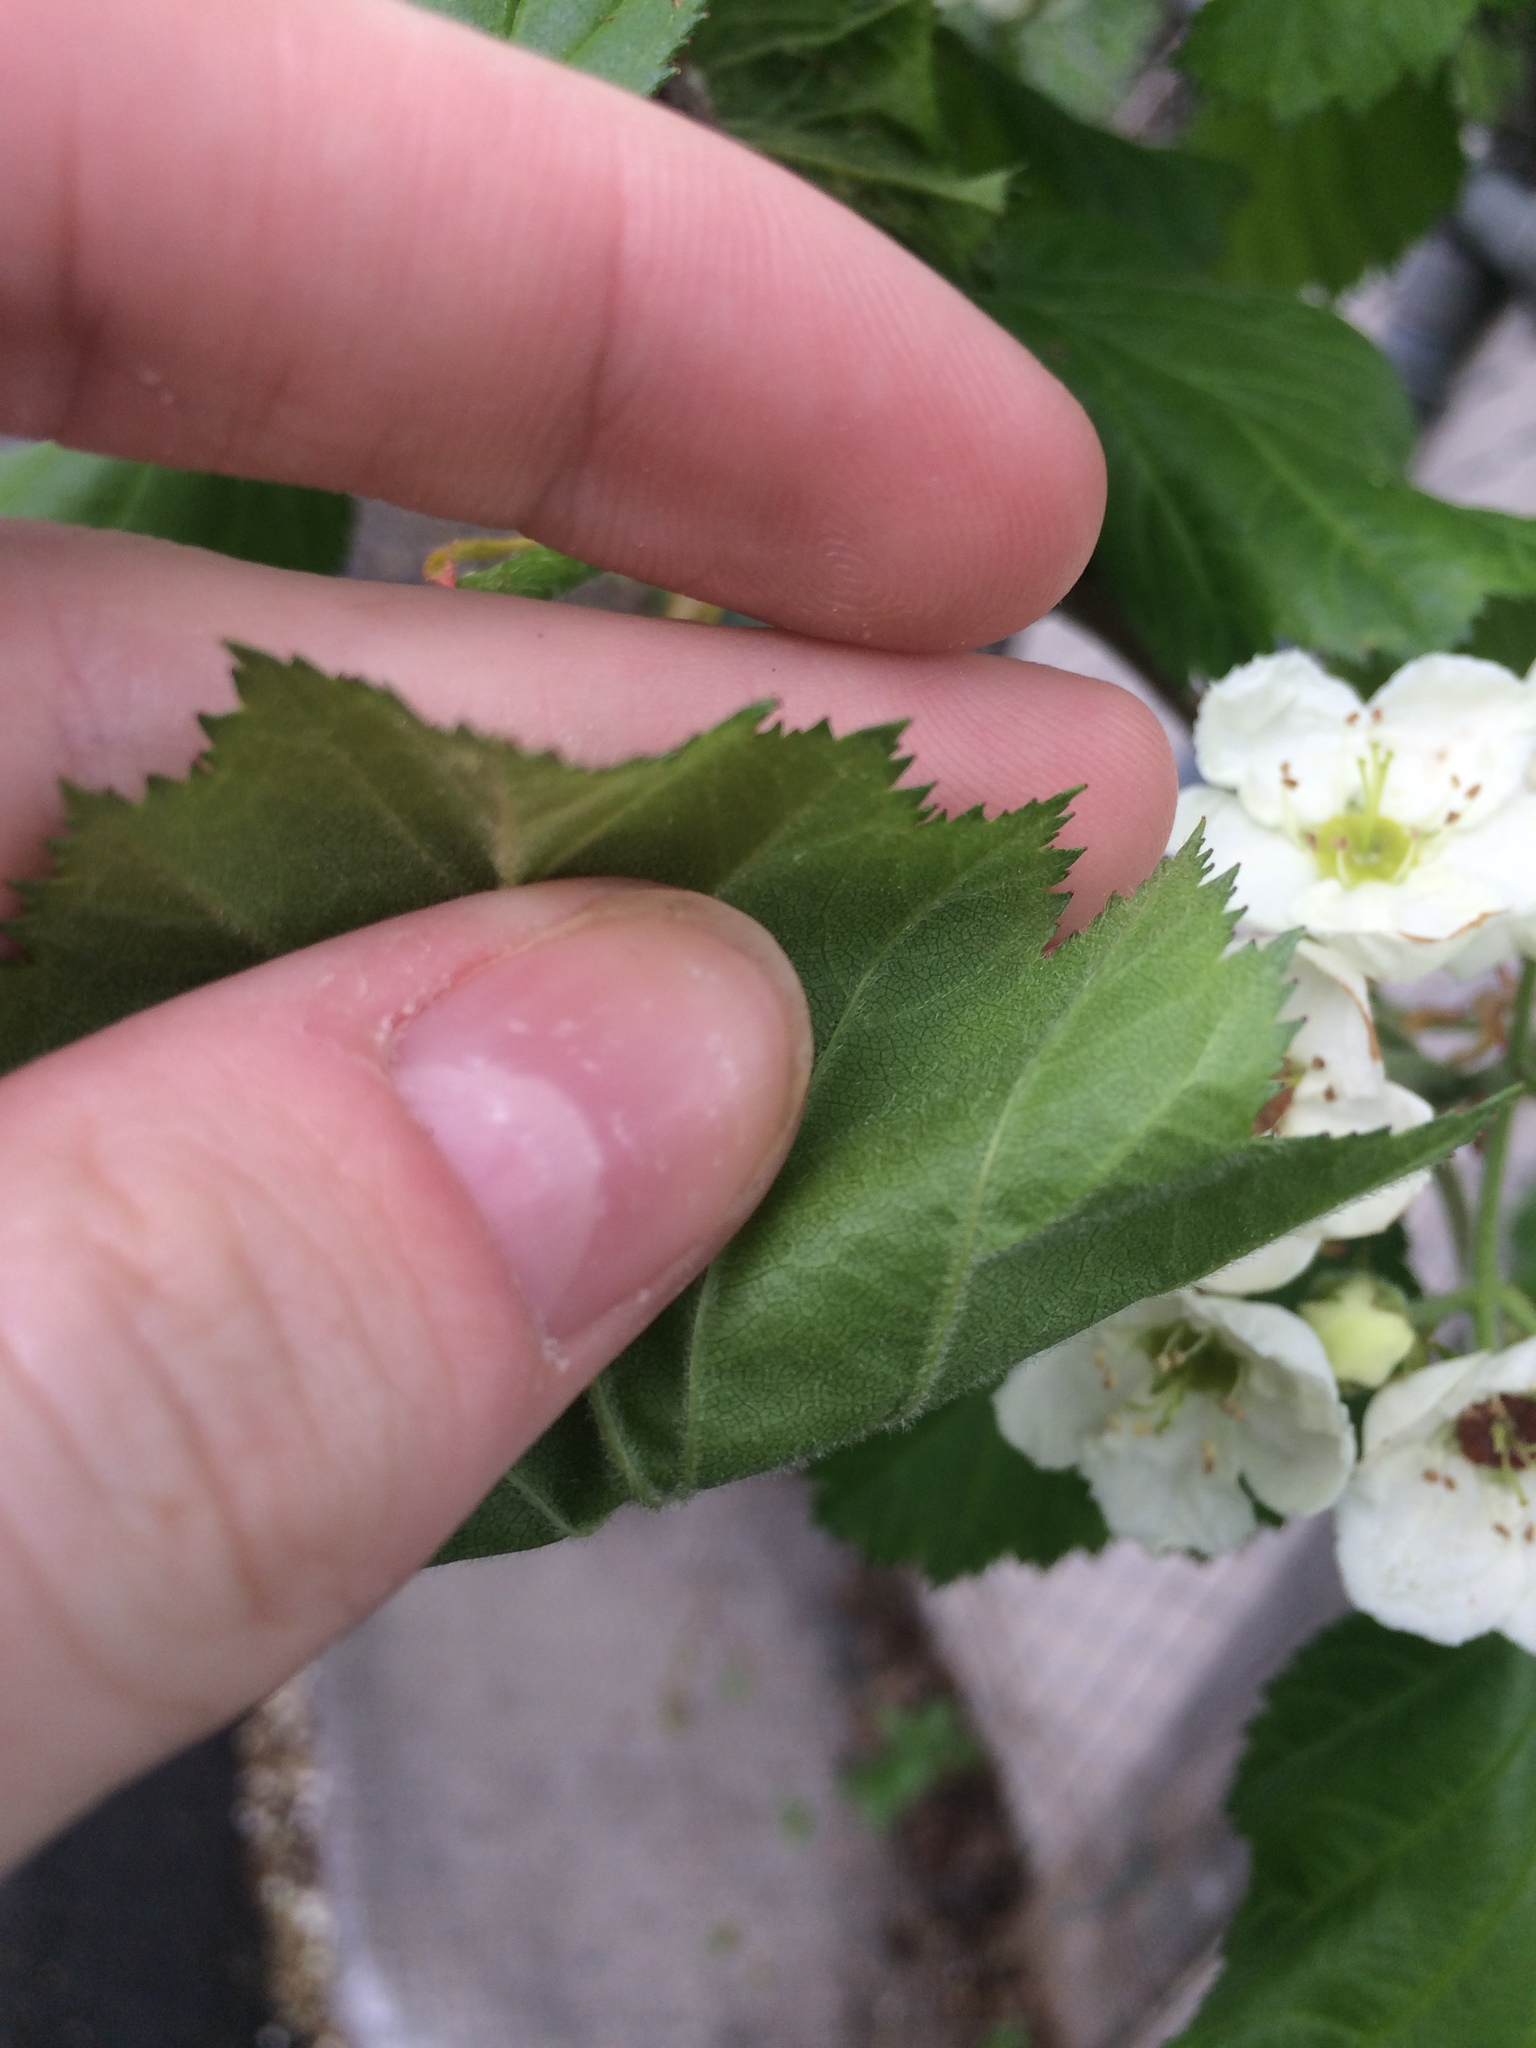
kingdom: Plantae
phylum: Tracheophyta
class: Magnoliopsida
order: Rosales
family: Rosaceae
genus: Crataegus
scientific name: Crataegus submollis
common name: Hairy cockspurthorn
